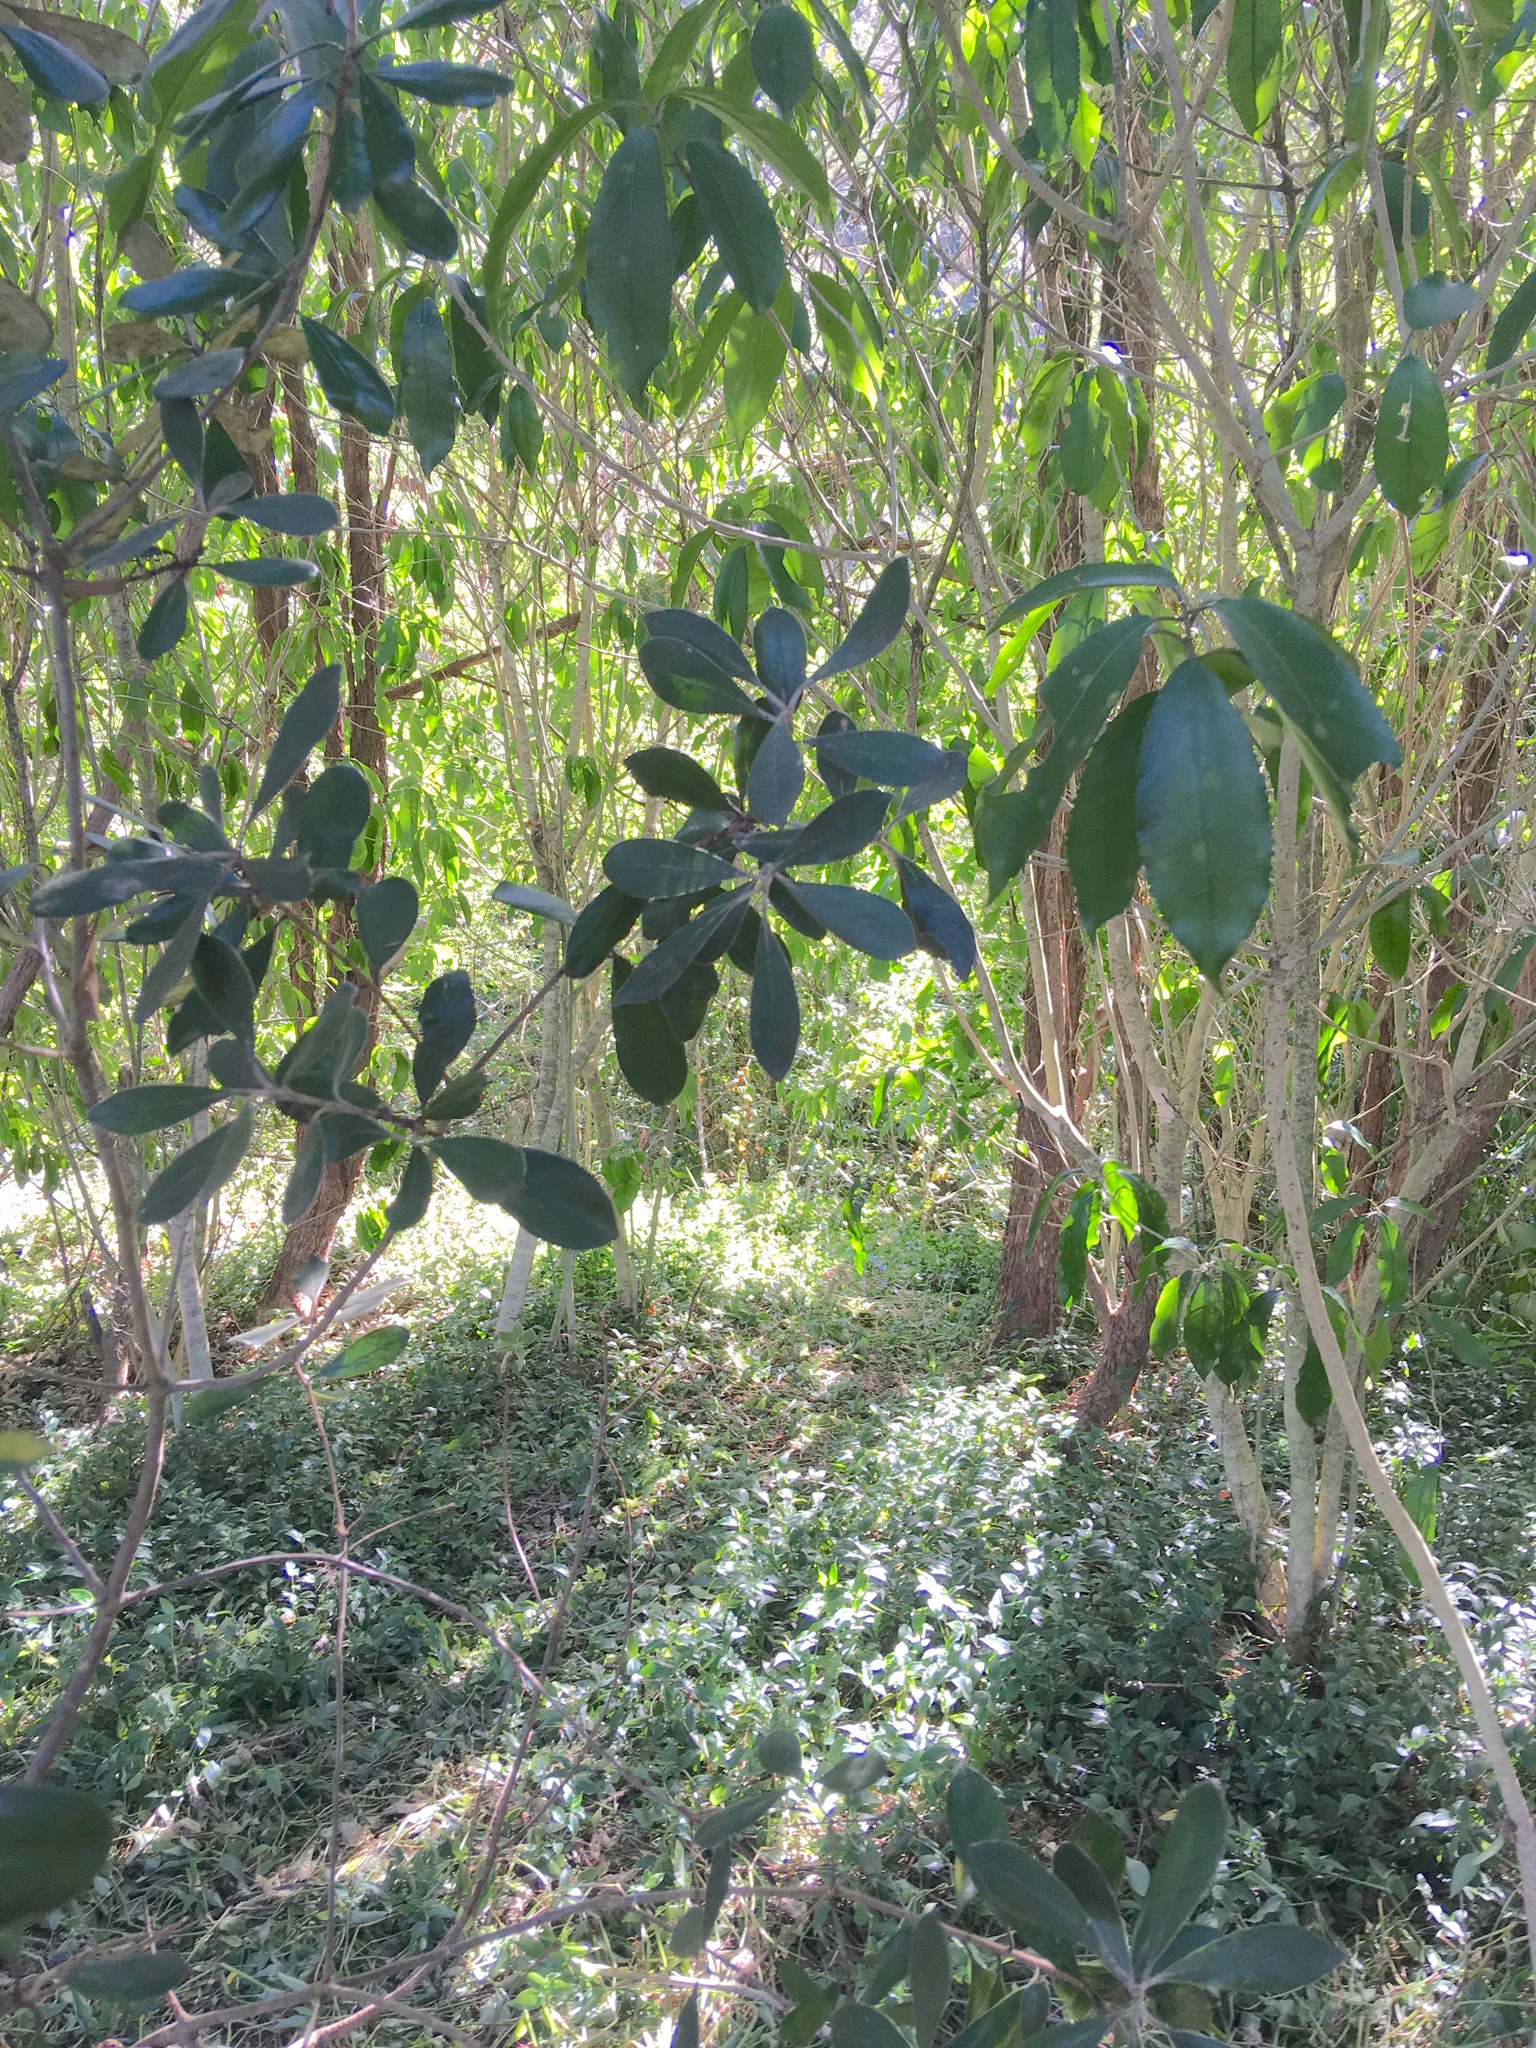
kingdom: Plantae
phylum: Tracheophyta
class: Magnoliopsida
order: Malpighiales
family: Violaceae
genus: Melicytus
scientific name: Melicytus ramiflorus
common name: Mahoe
